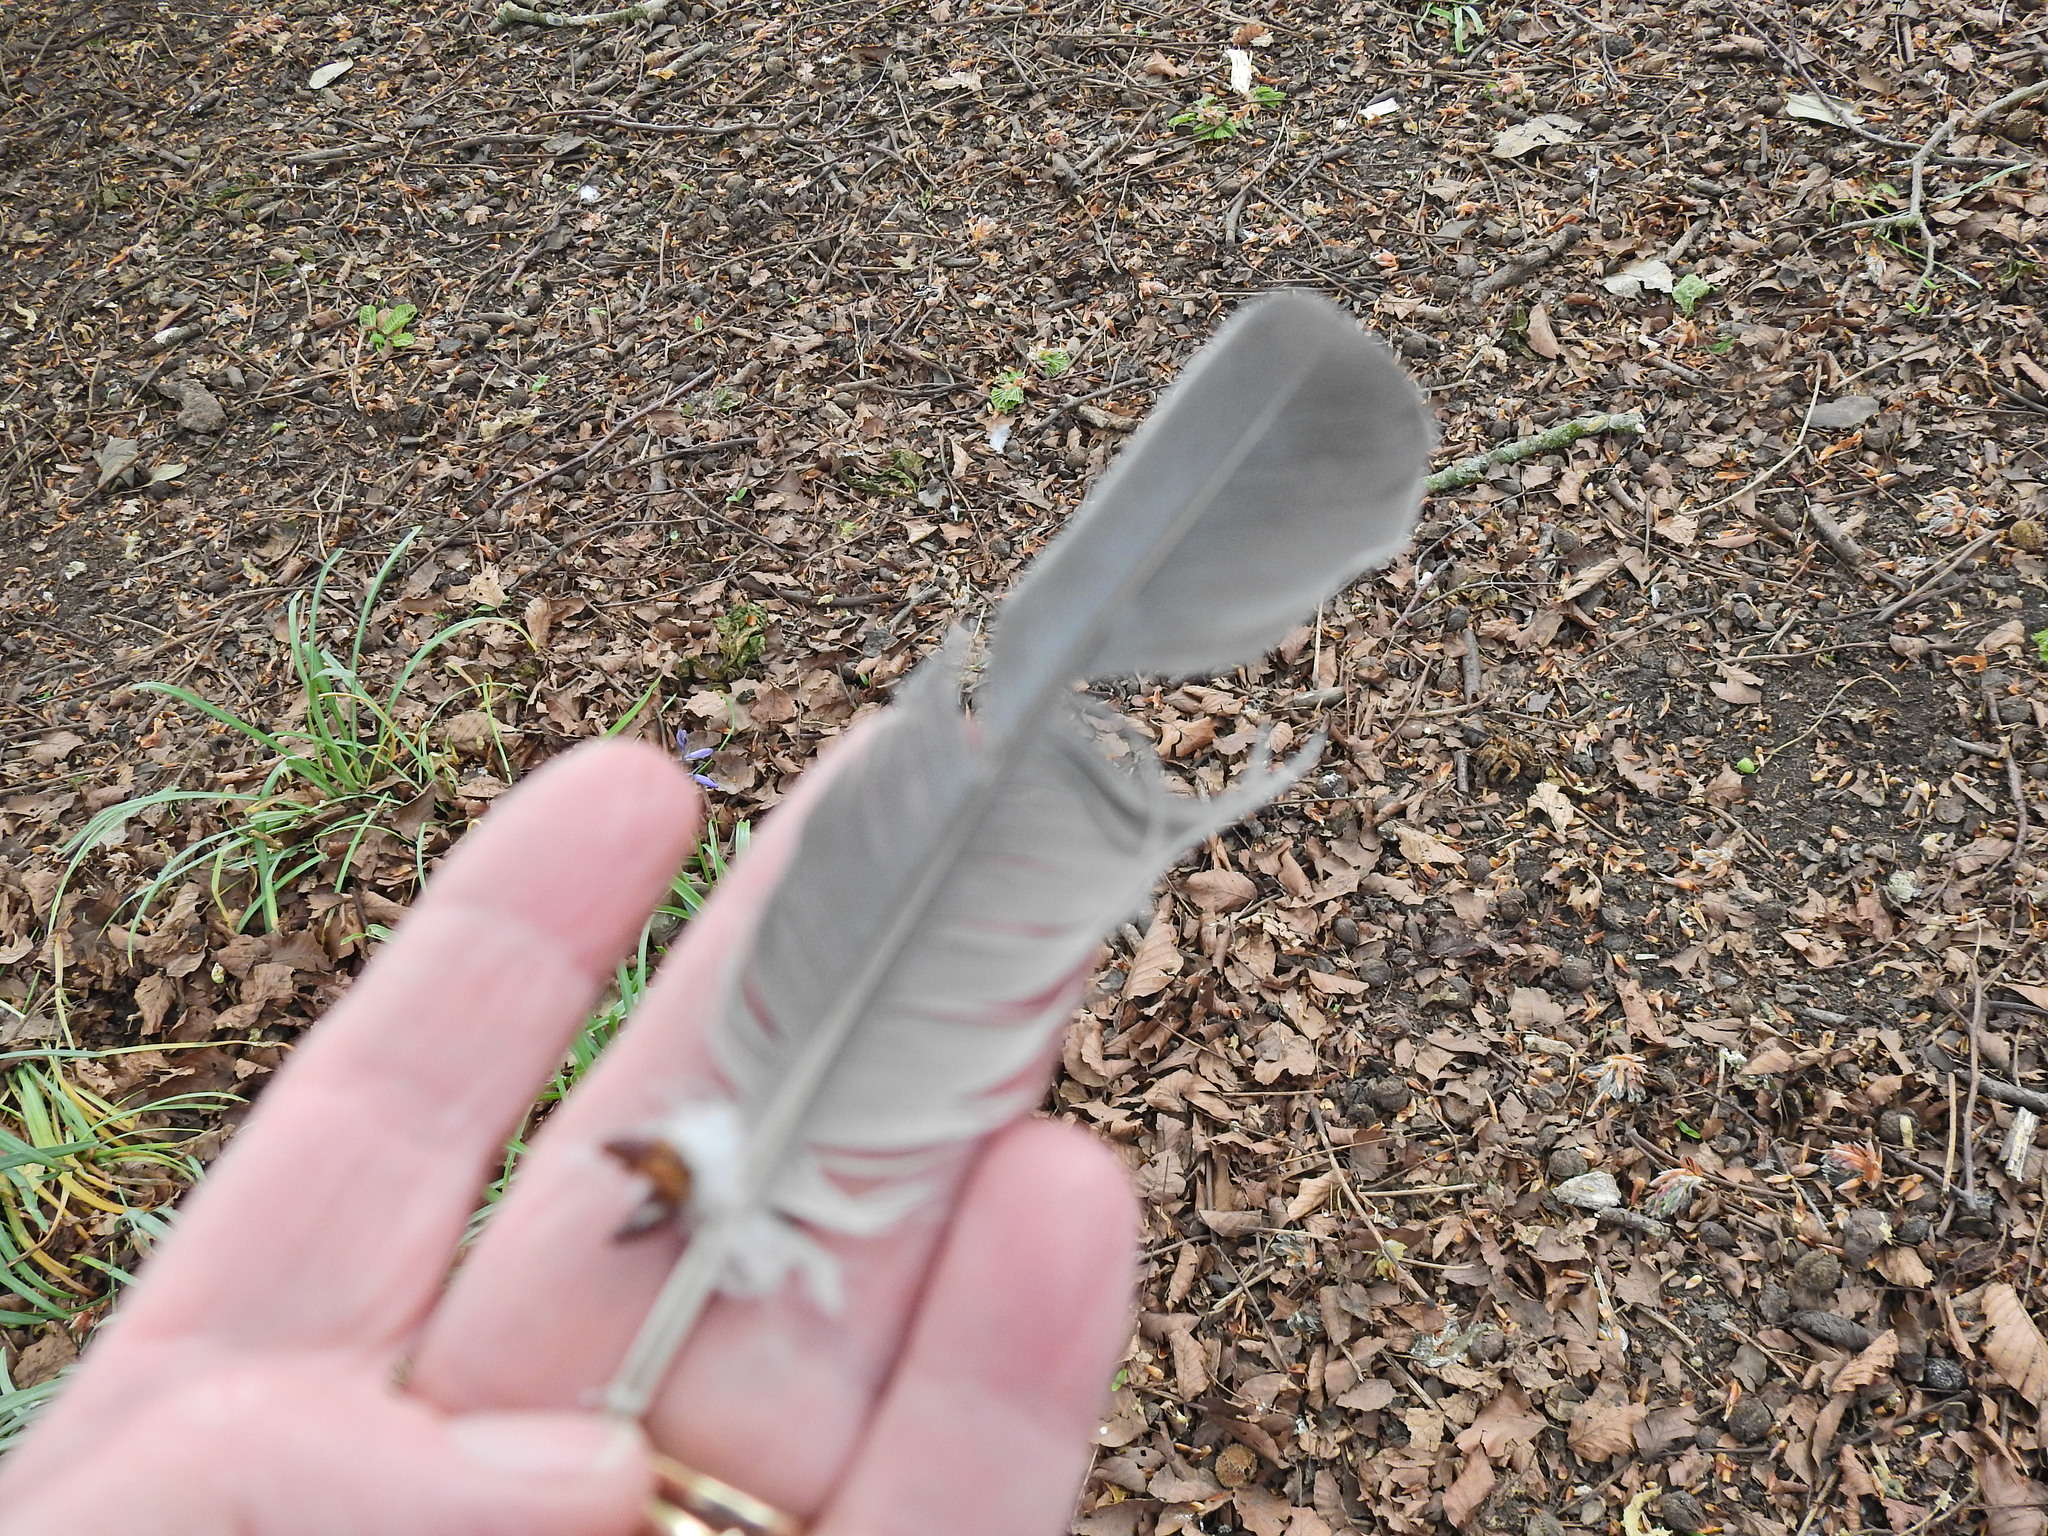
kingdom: Animalia
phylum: Chordata
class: Aves
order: Columbiformes
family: Columbidae
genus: Columba
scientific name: Columba palumbus
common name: Common wood pigeon
